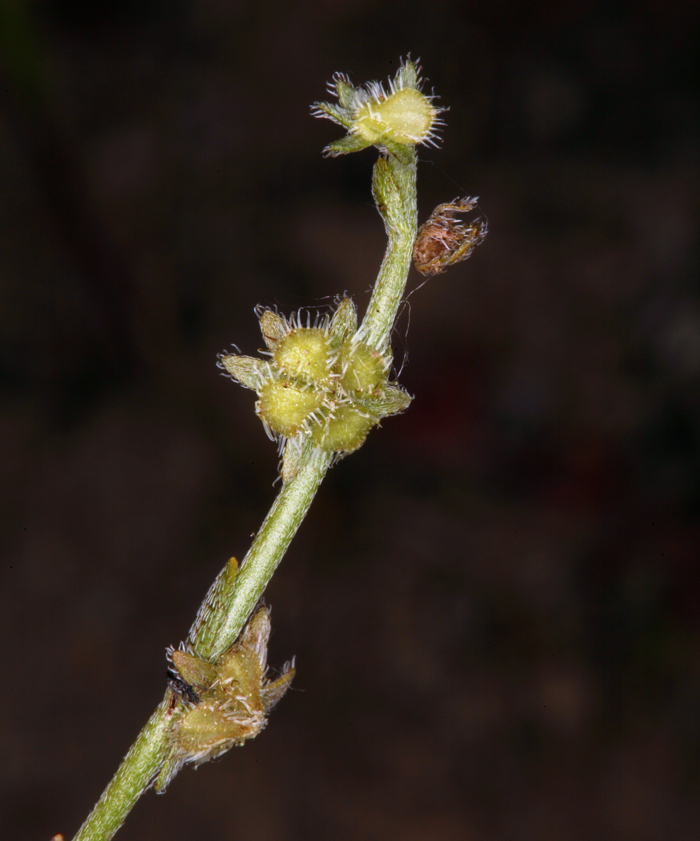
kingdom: Plantae
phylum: Tracheophyta
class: Magnoliopsida
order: Boraginales
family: Boraginaceae
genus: Pectocarya
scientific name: Pectocarya pusilla
